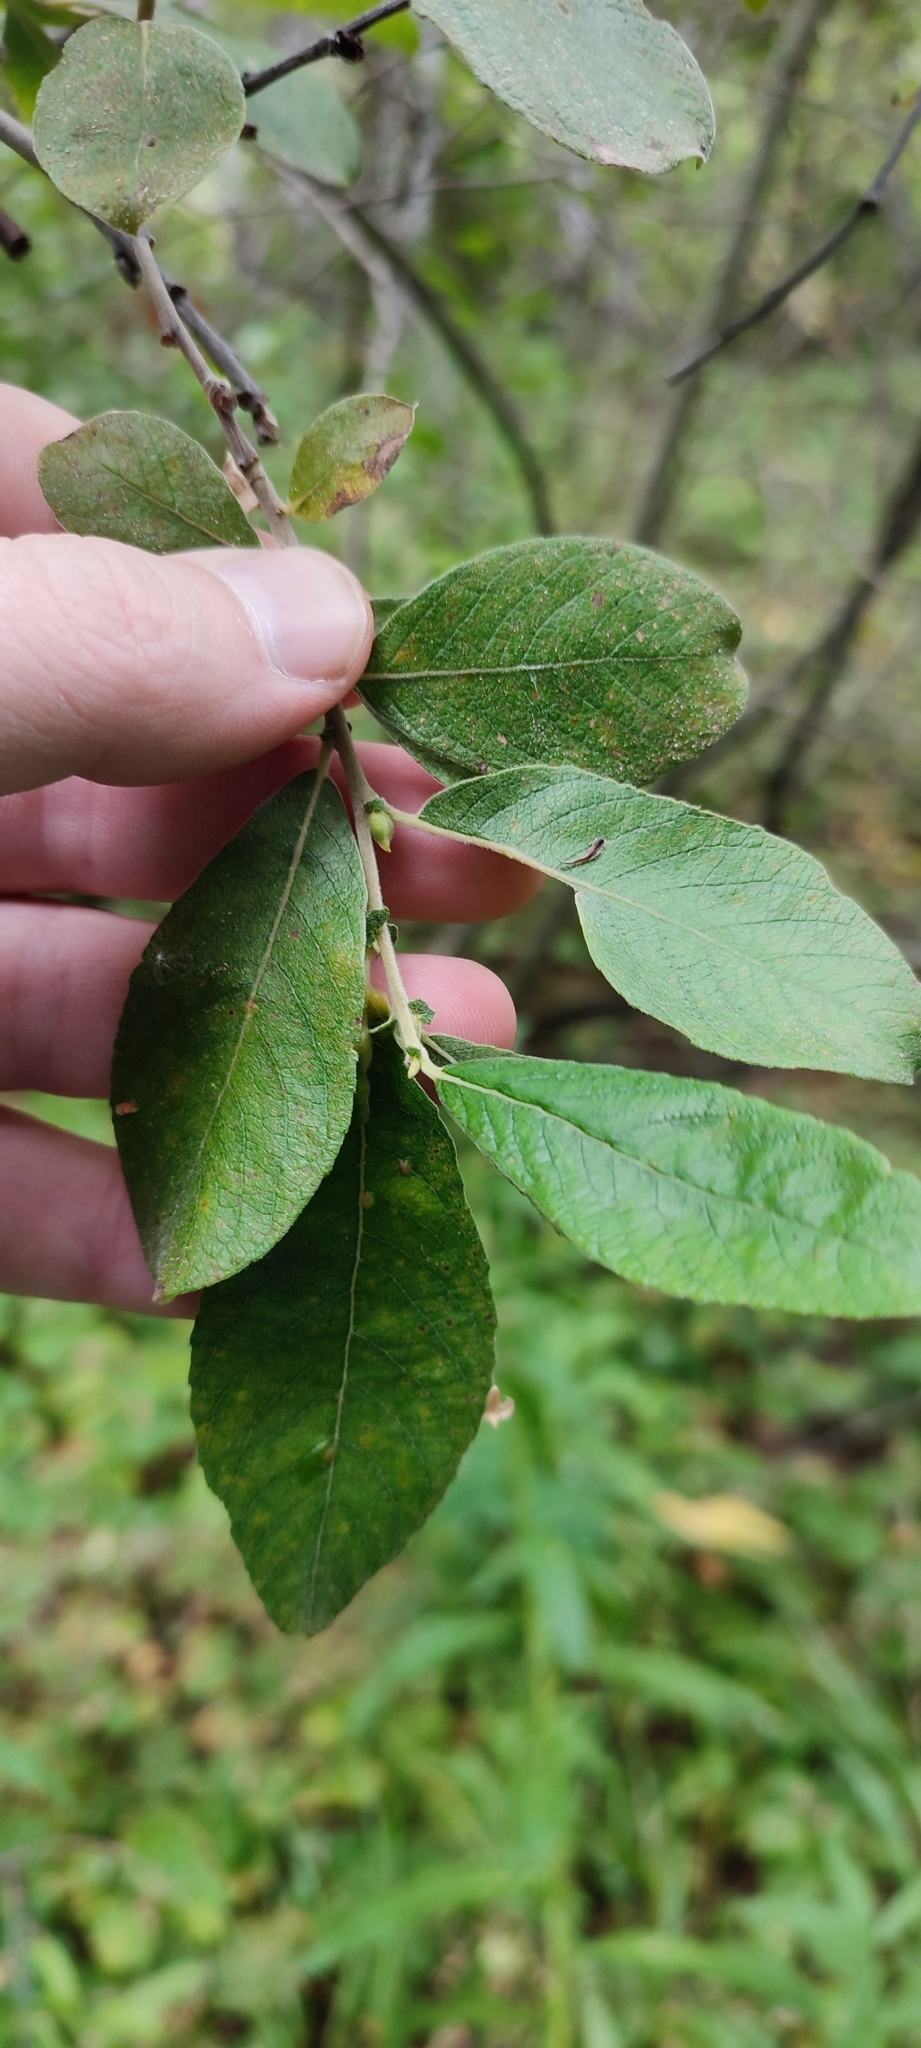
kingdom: Plantae
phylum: Tracheophyta
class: Magnoliopsida
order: Malpighiales
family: Salicaceae
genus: Salix
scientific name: Salix cinerea
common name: Common sallow
